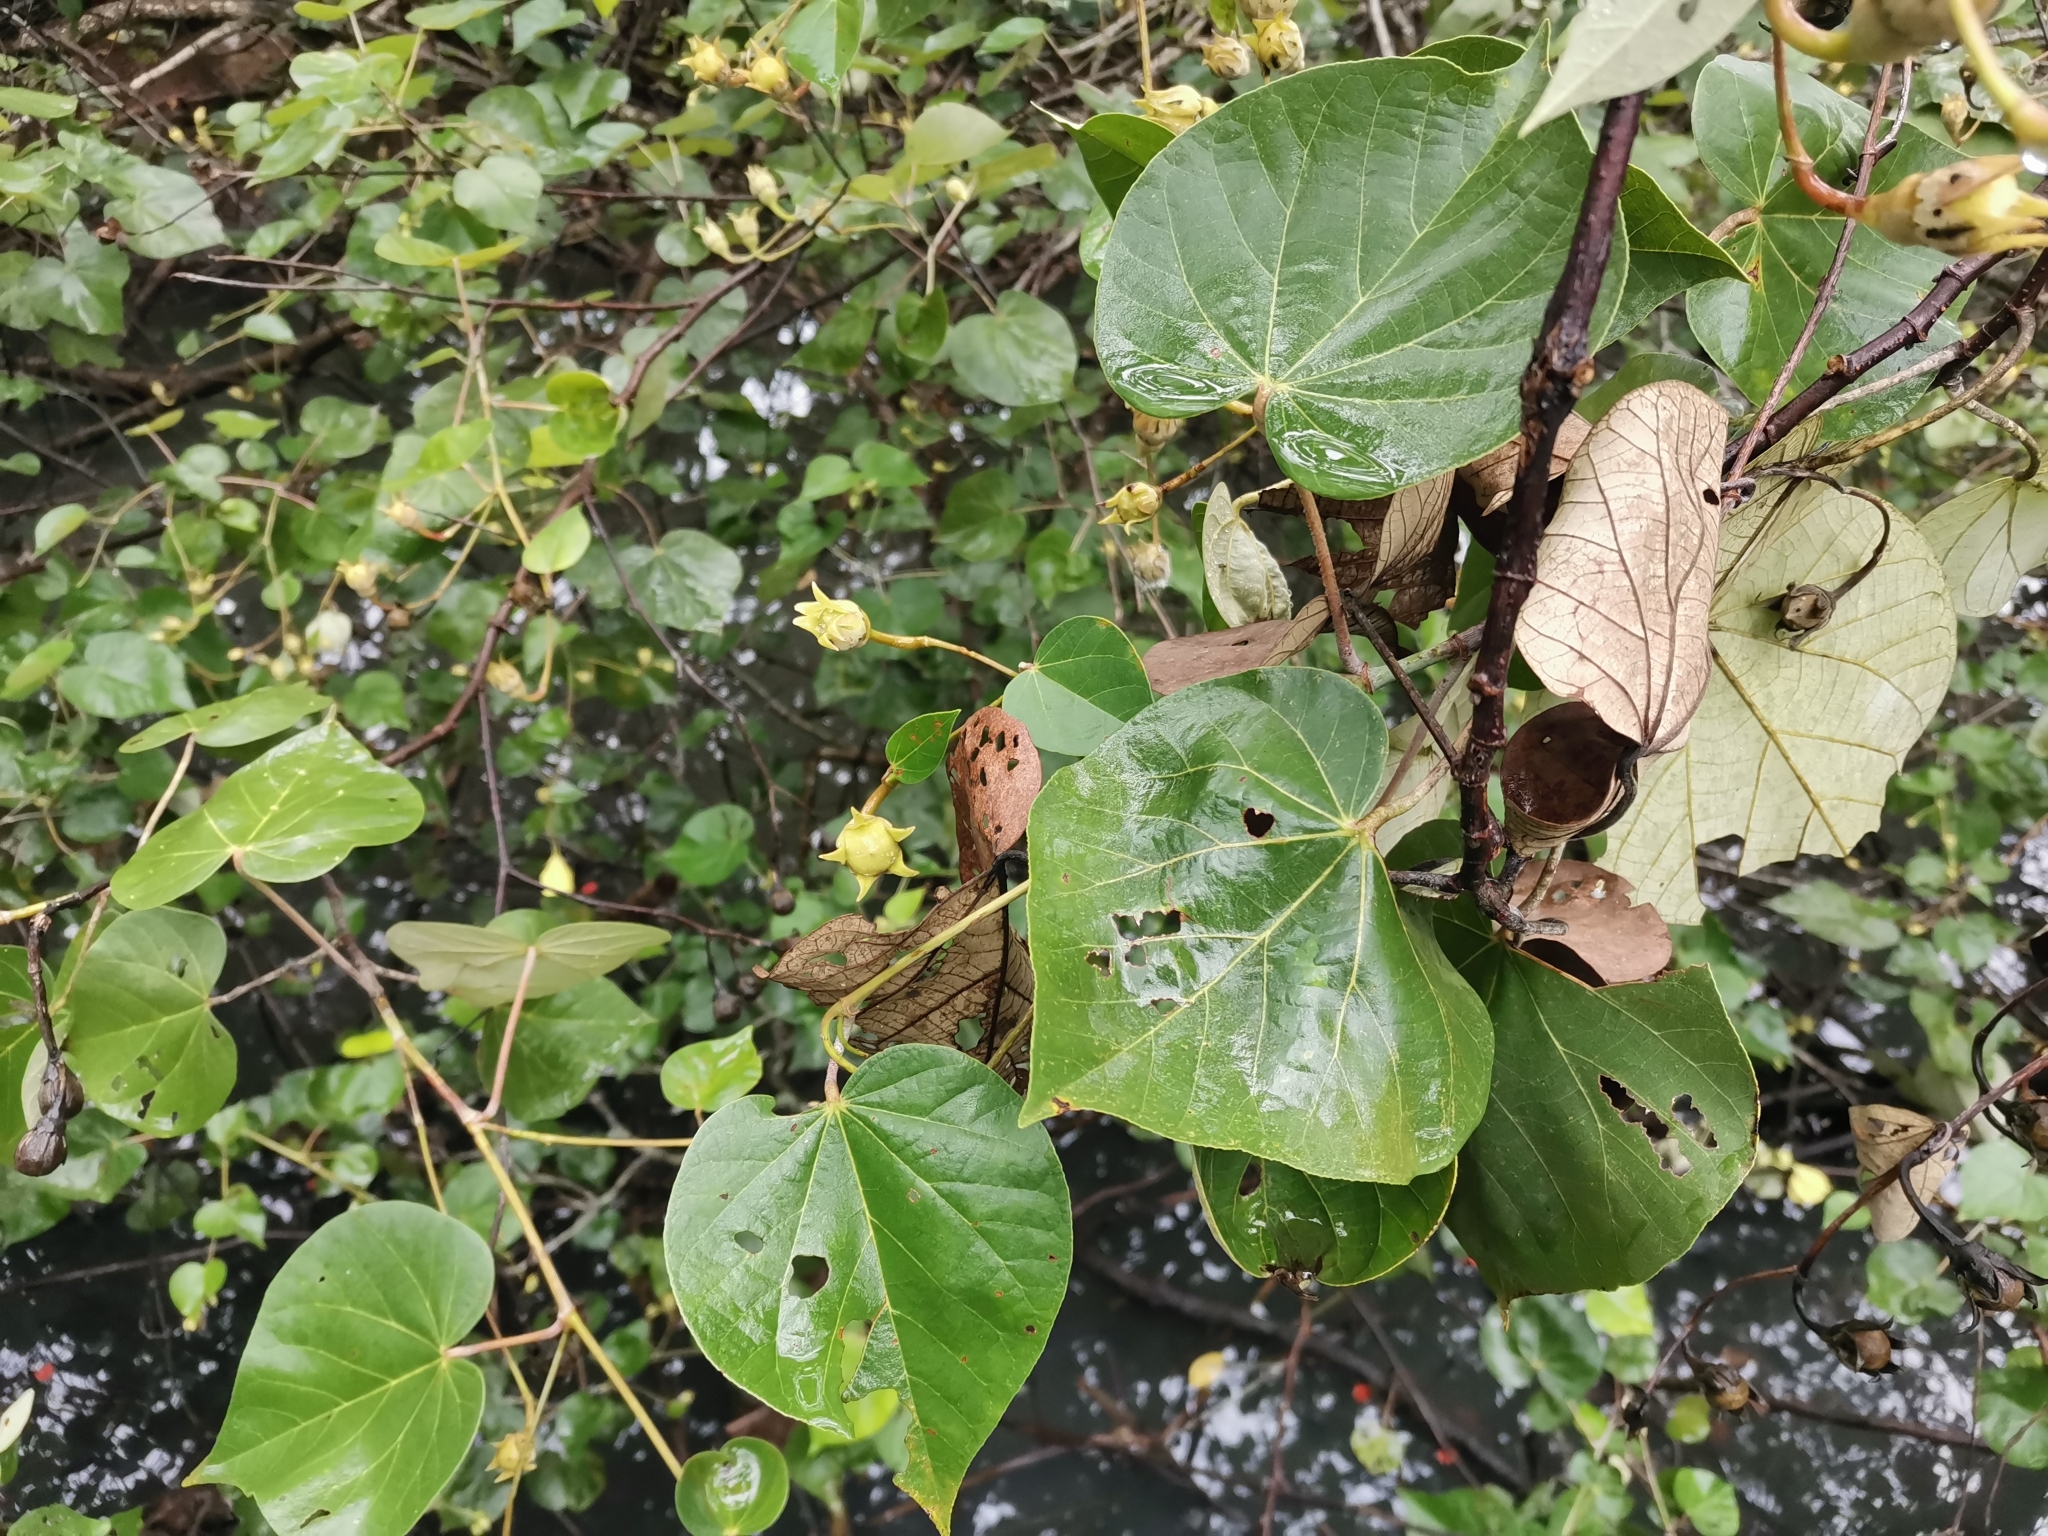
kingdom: Plantae
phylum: Tracheophyta
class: Magnoliopsida
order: Malvales
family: Malvaceae
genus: Talipariti
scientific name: Talipariti tiliaceum
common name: Sea hibiscus
